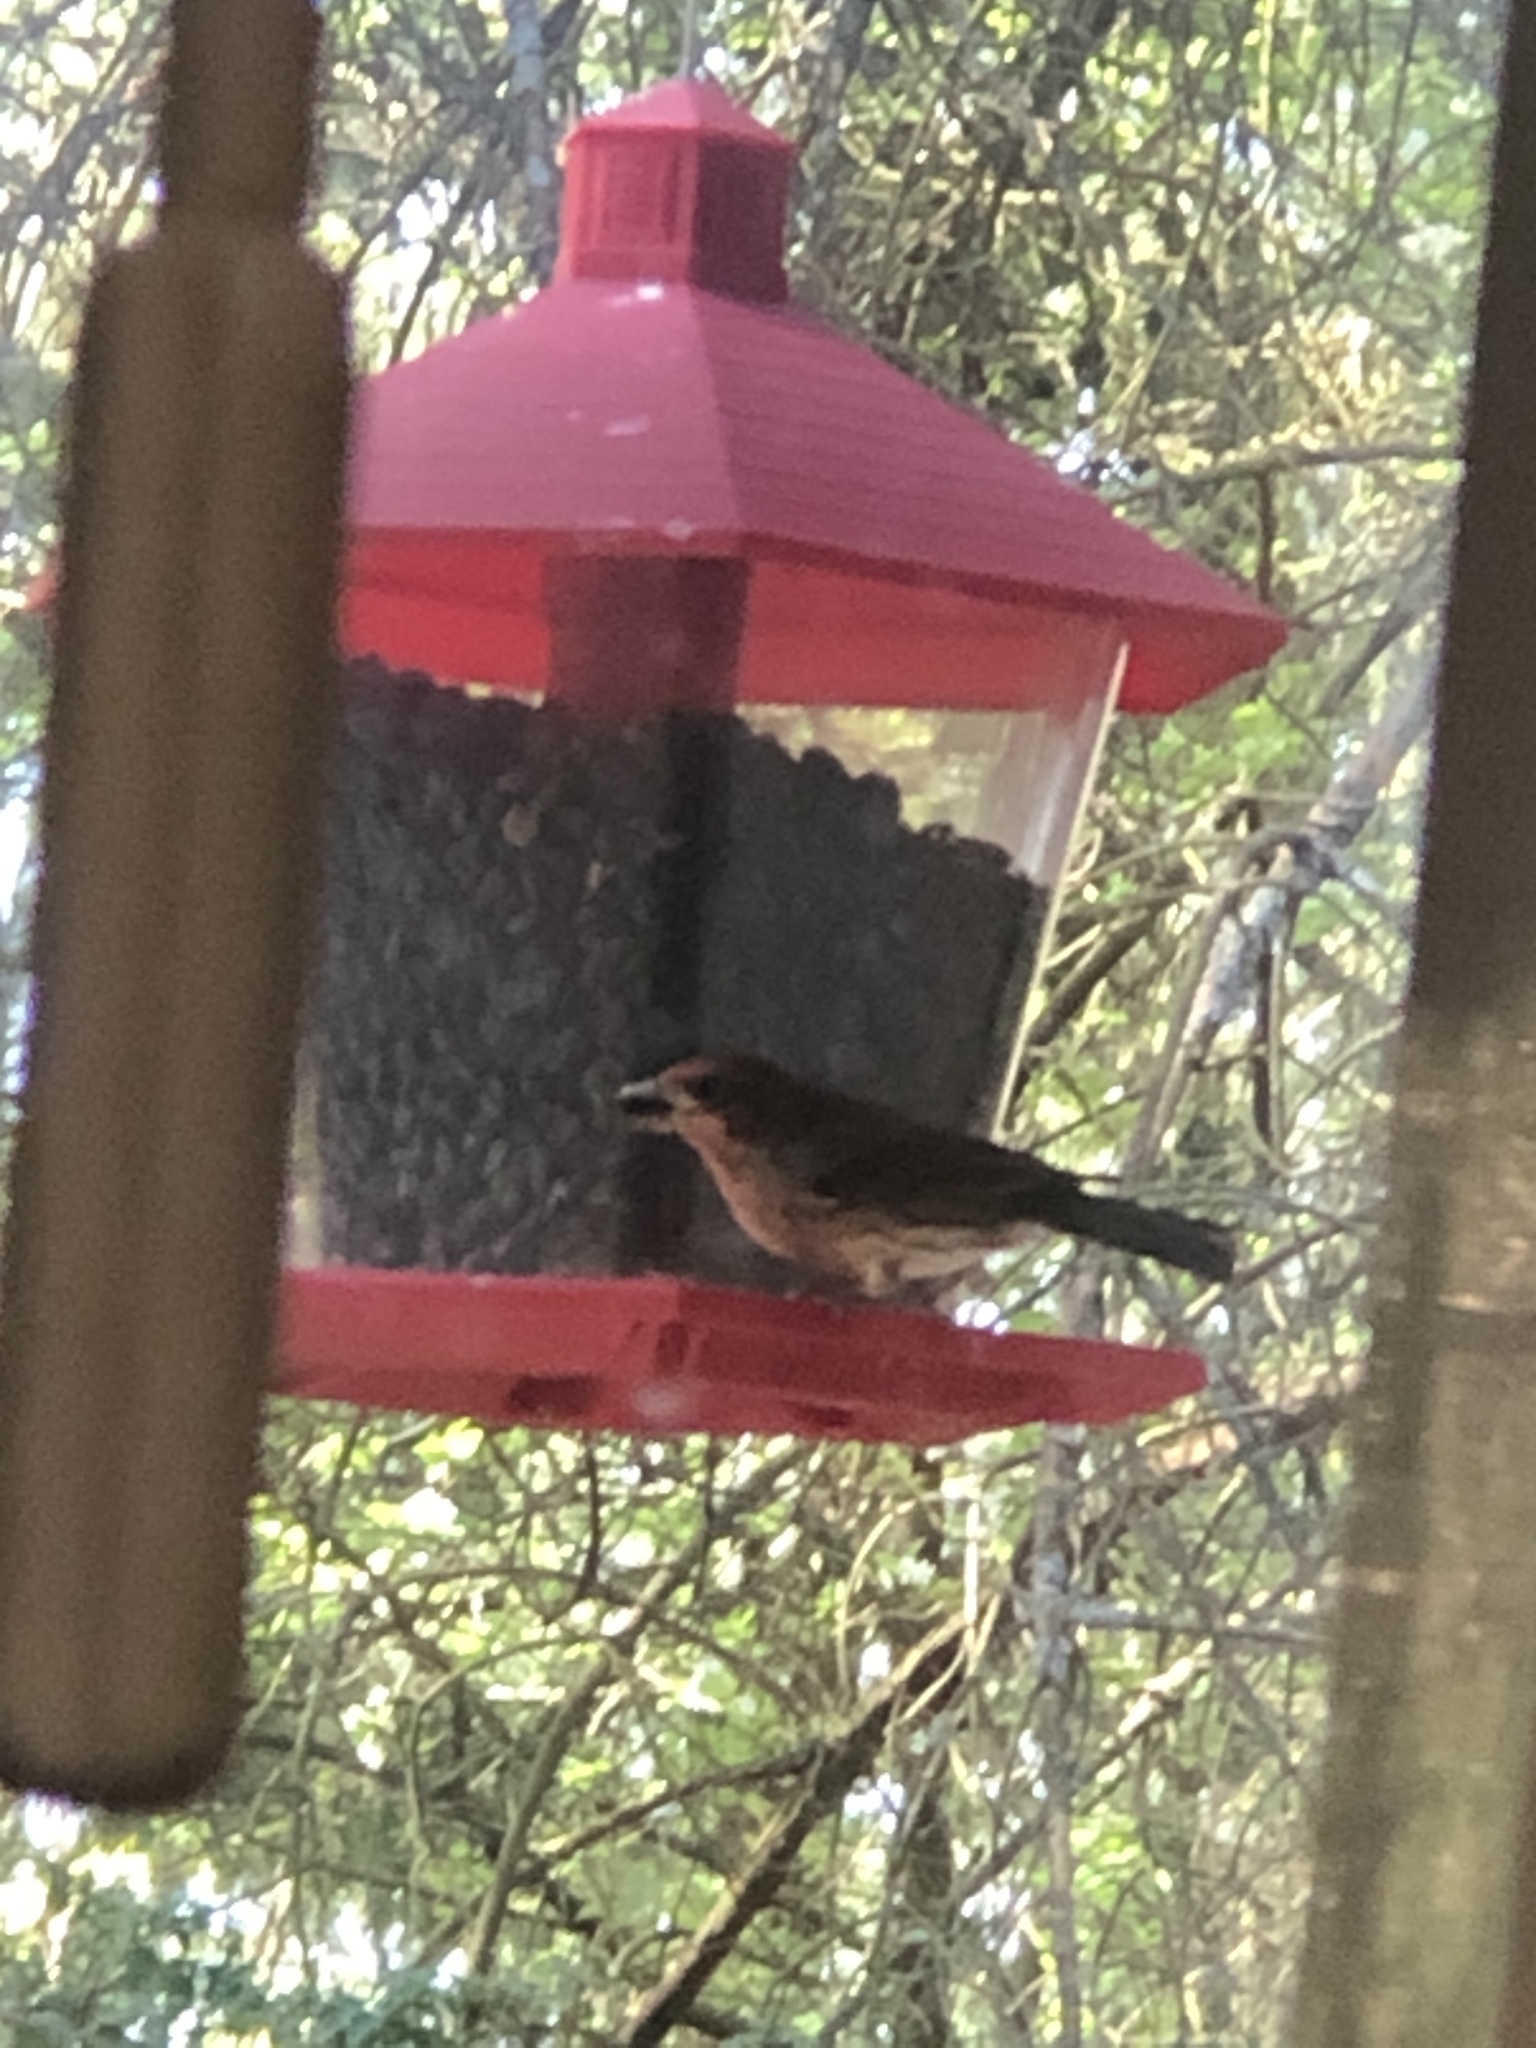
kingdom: Animalia
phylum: Chordata
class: Aves
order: Passeriformes
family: Fringillidae
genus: Haemorhous
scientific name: Haemorhous mexicanus
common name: House finch
